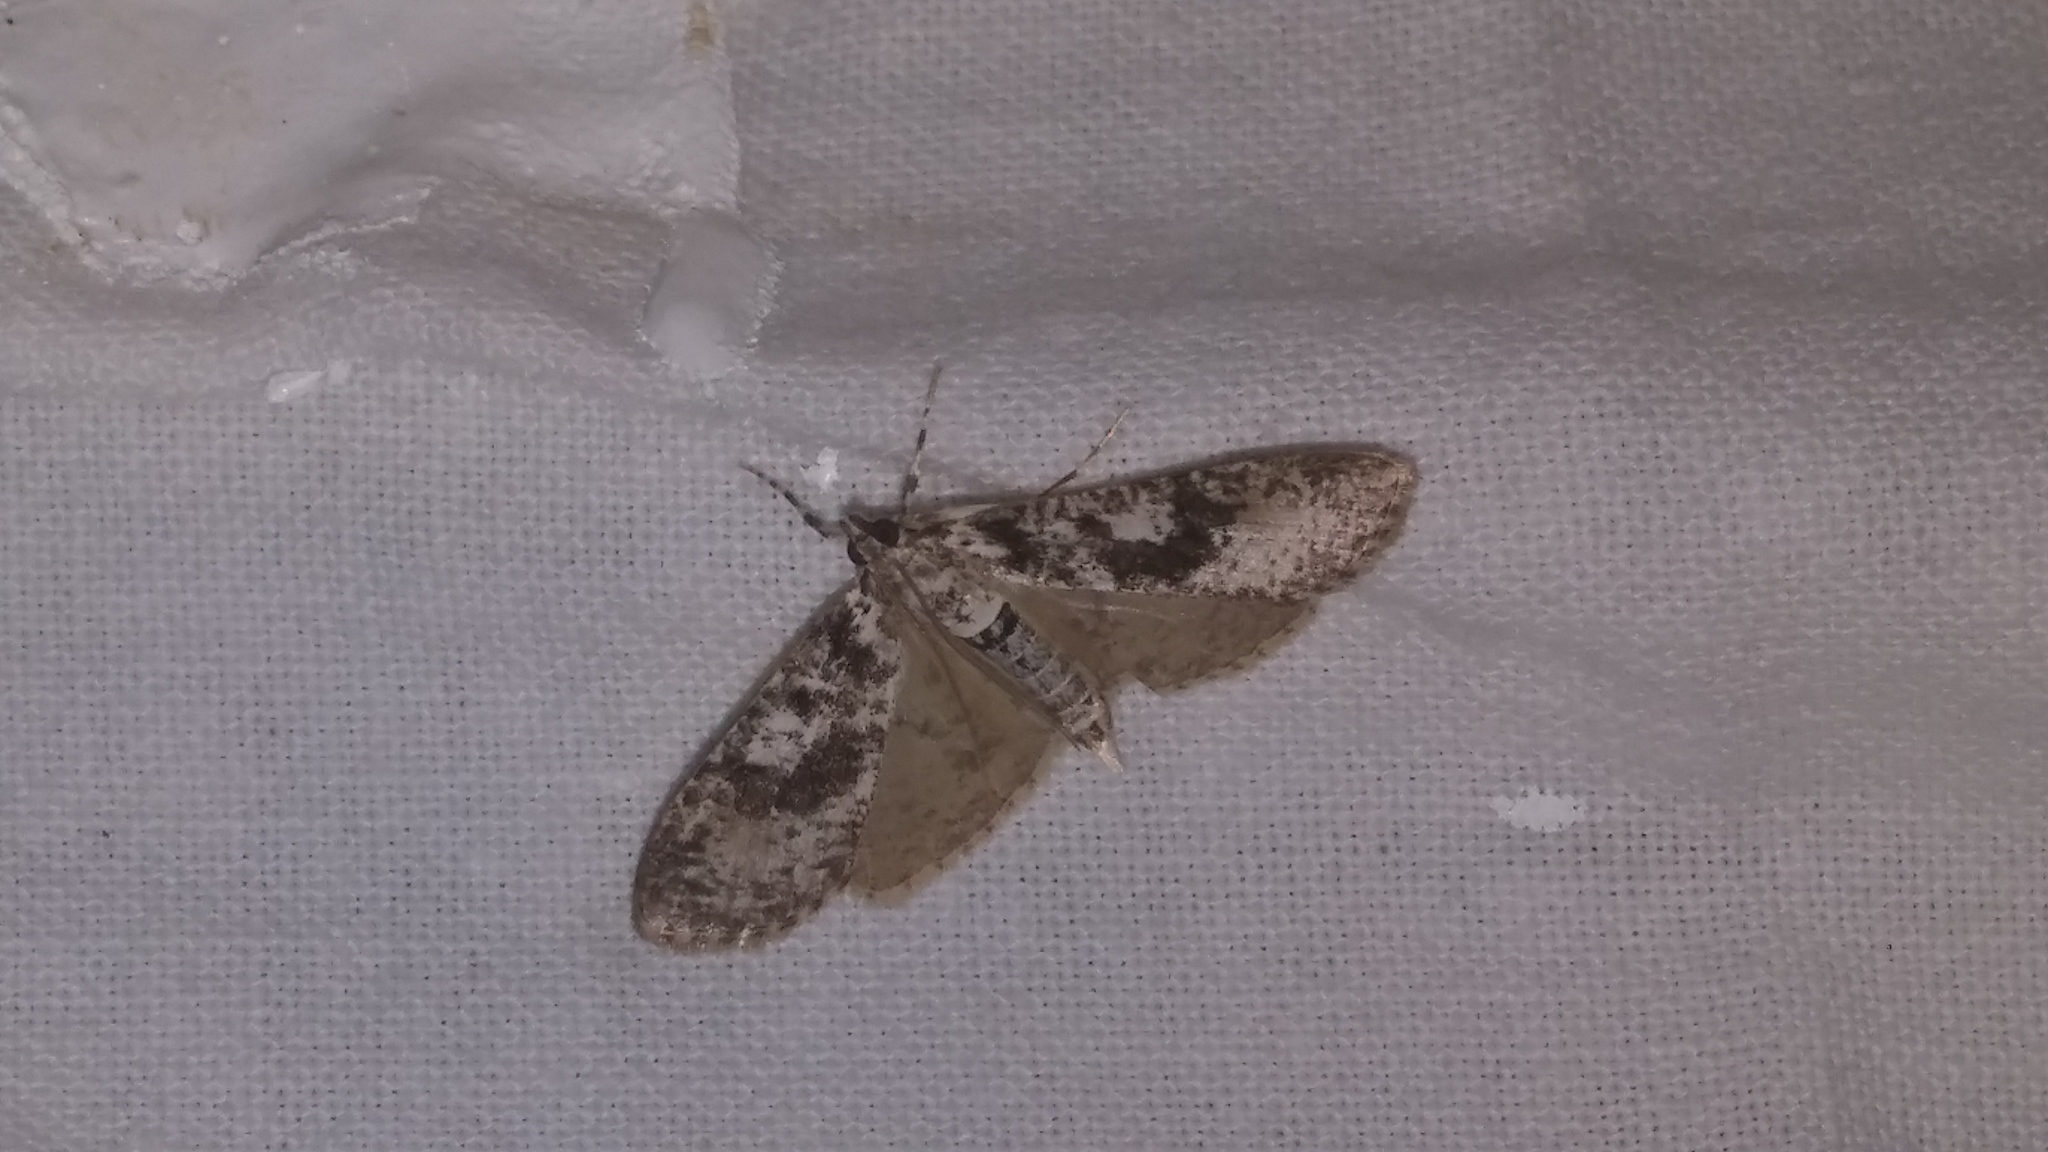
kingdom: Animalia
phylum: Arthropoda
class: Insecta
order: Lepidoptera
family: Crambidae
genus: Palpita
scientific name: Palpita magniferalis
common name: Splendid palpita moth
